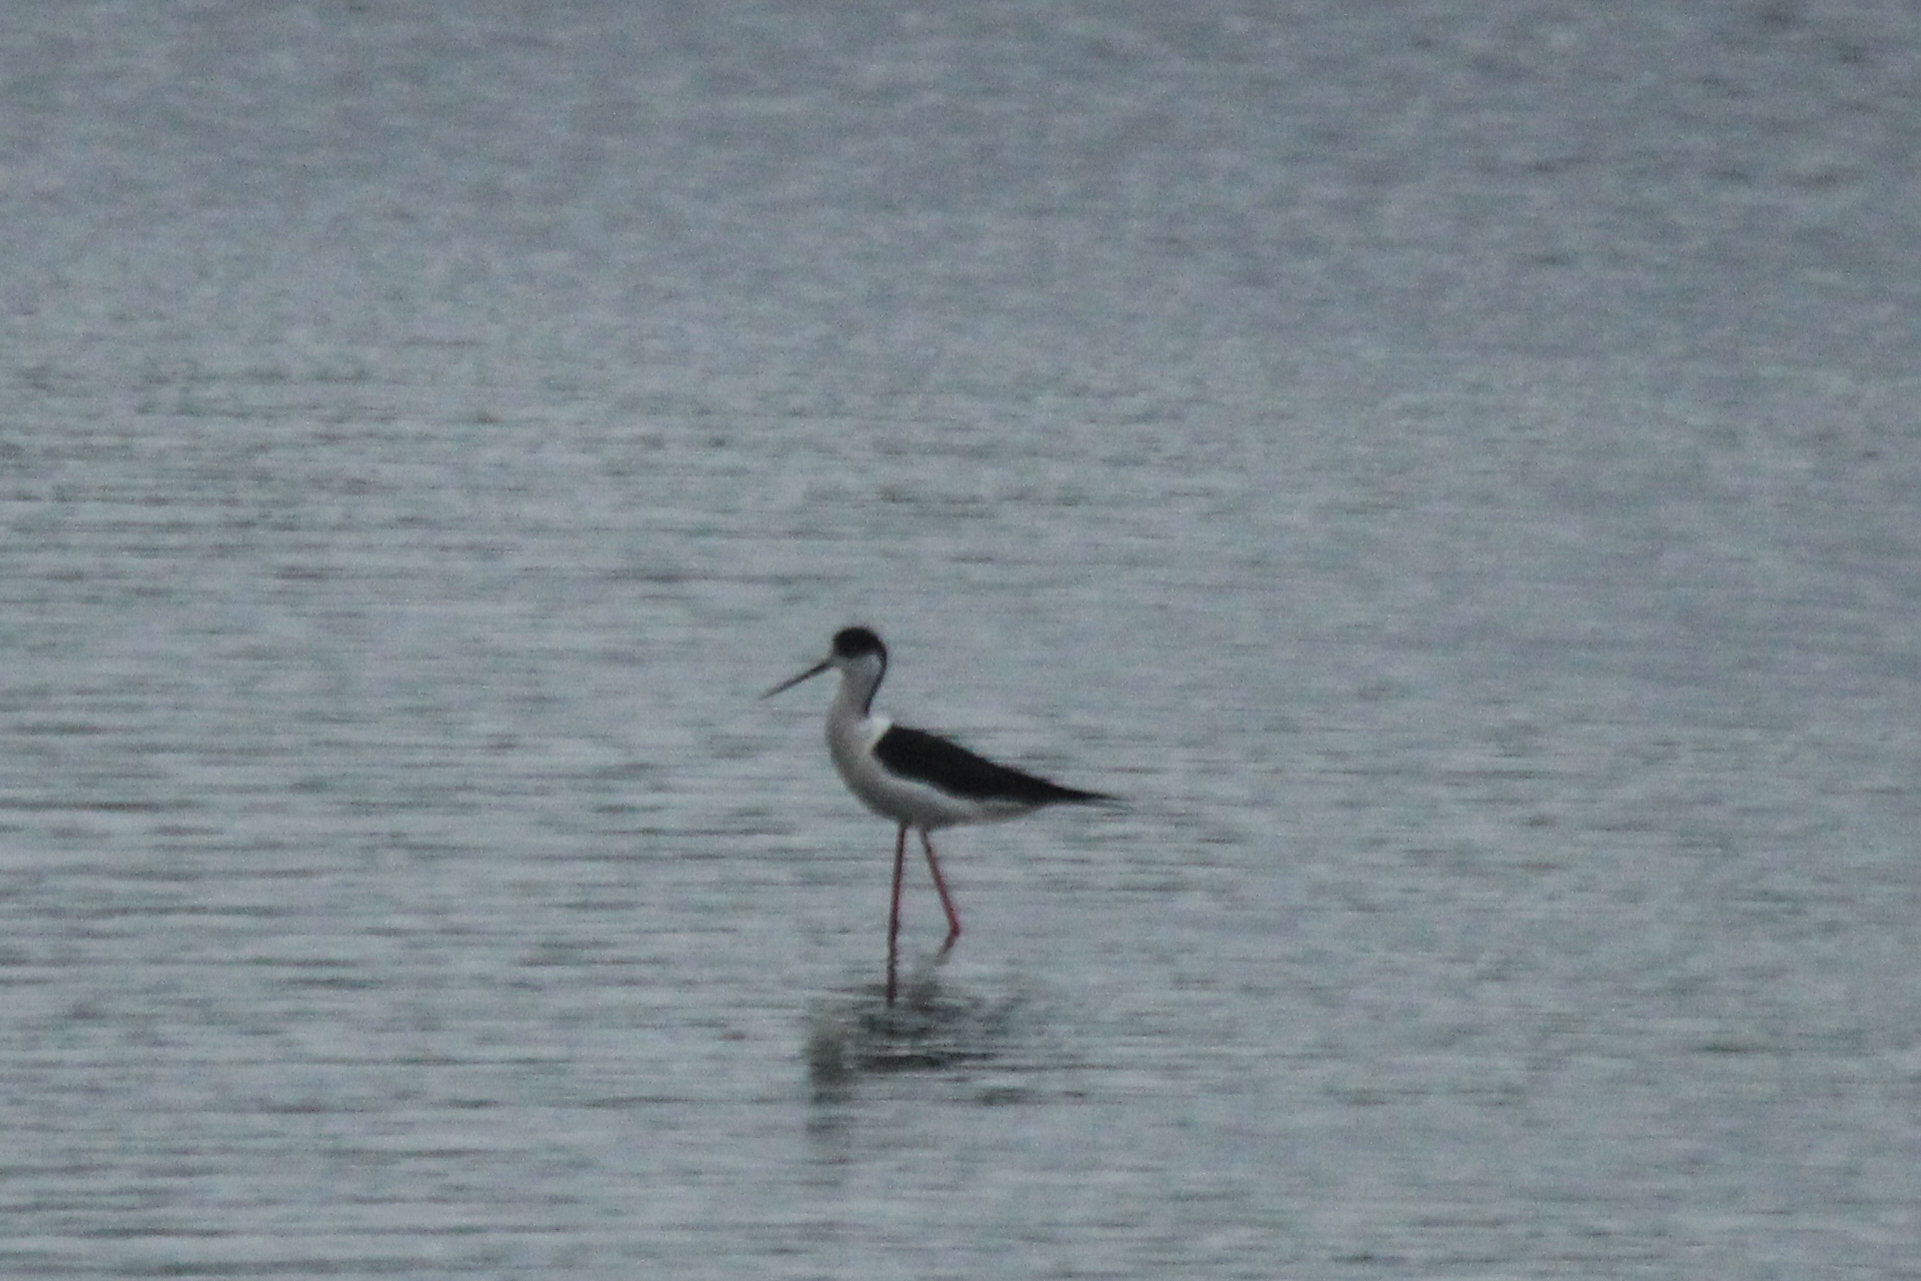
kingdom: Animalia
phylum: Chordata
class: Aves
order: Charadriiformes
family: Recurvirostridae
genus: Himantopus
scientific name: Himantopus himantopus
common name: Black-winged stilt
